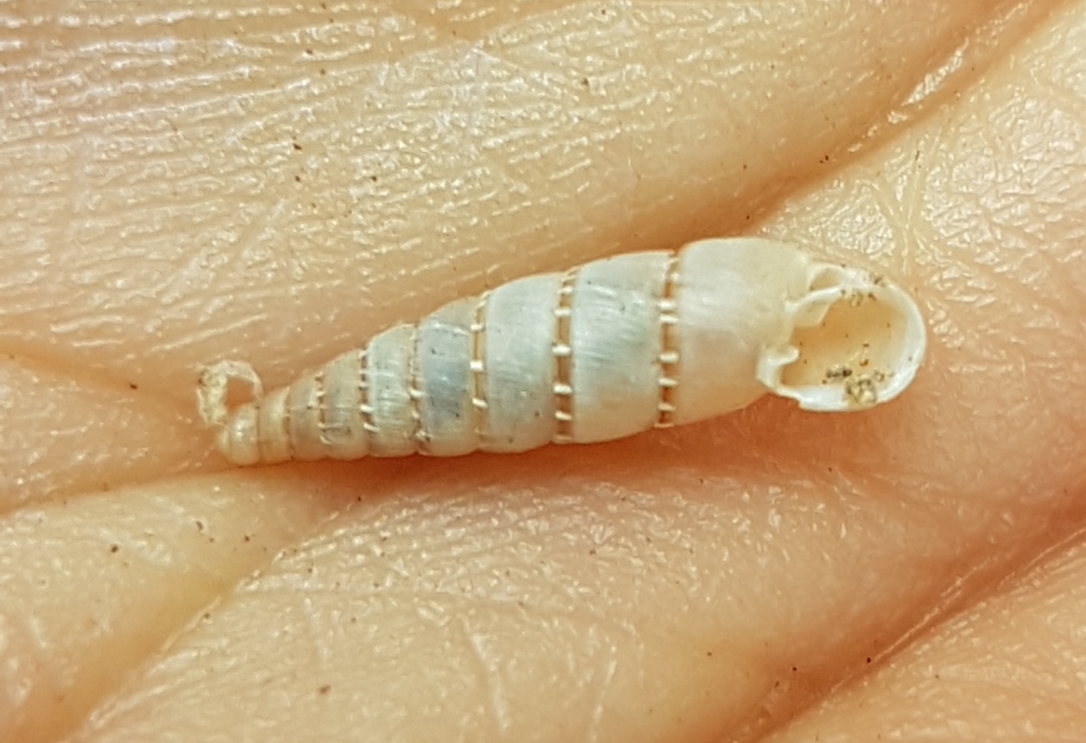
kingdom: Animalia
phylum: Mollusca
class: Gastropoda
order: Stylommatophora
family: Clausiliidae
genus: Papillifera
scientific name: Papillifera papillaris
